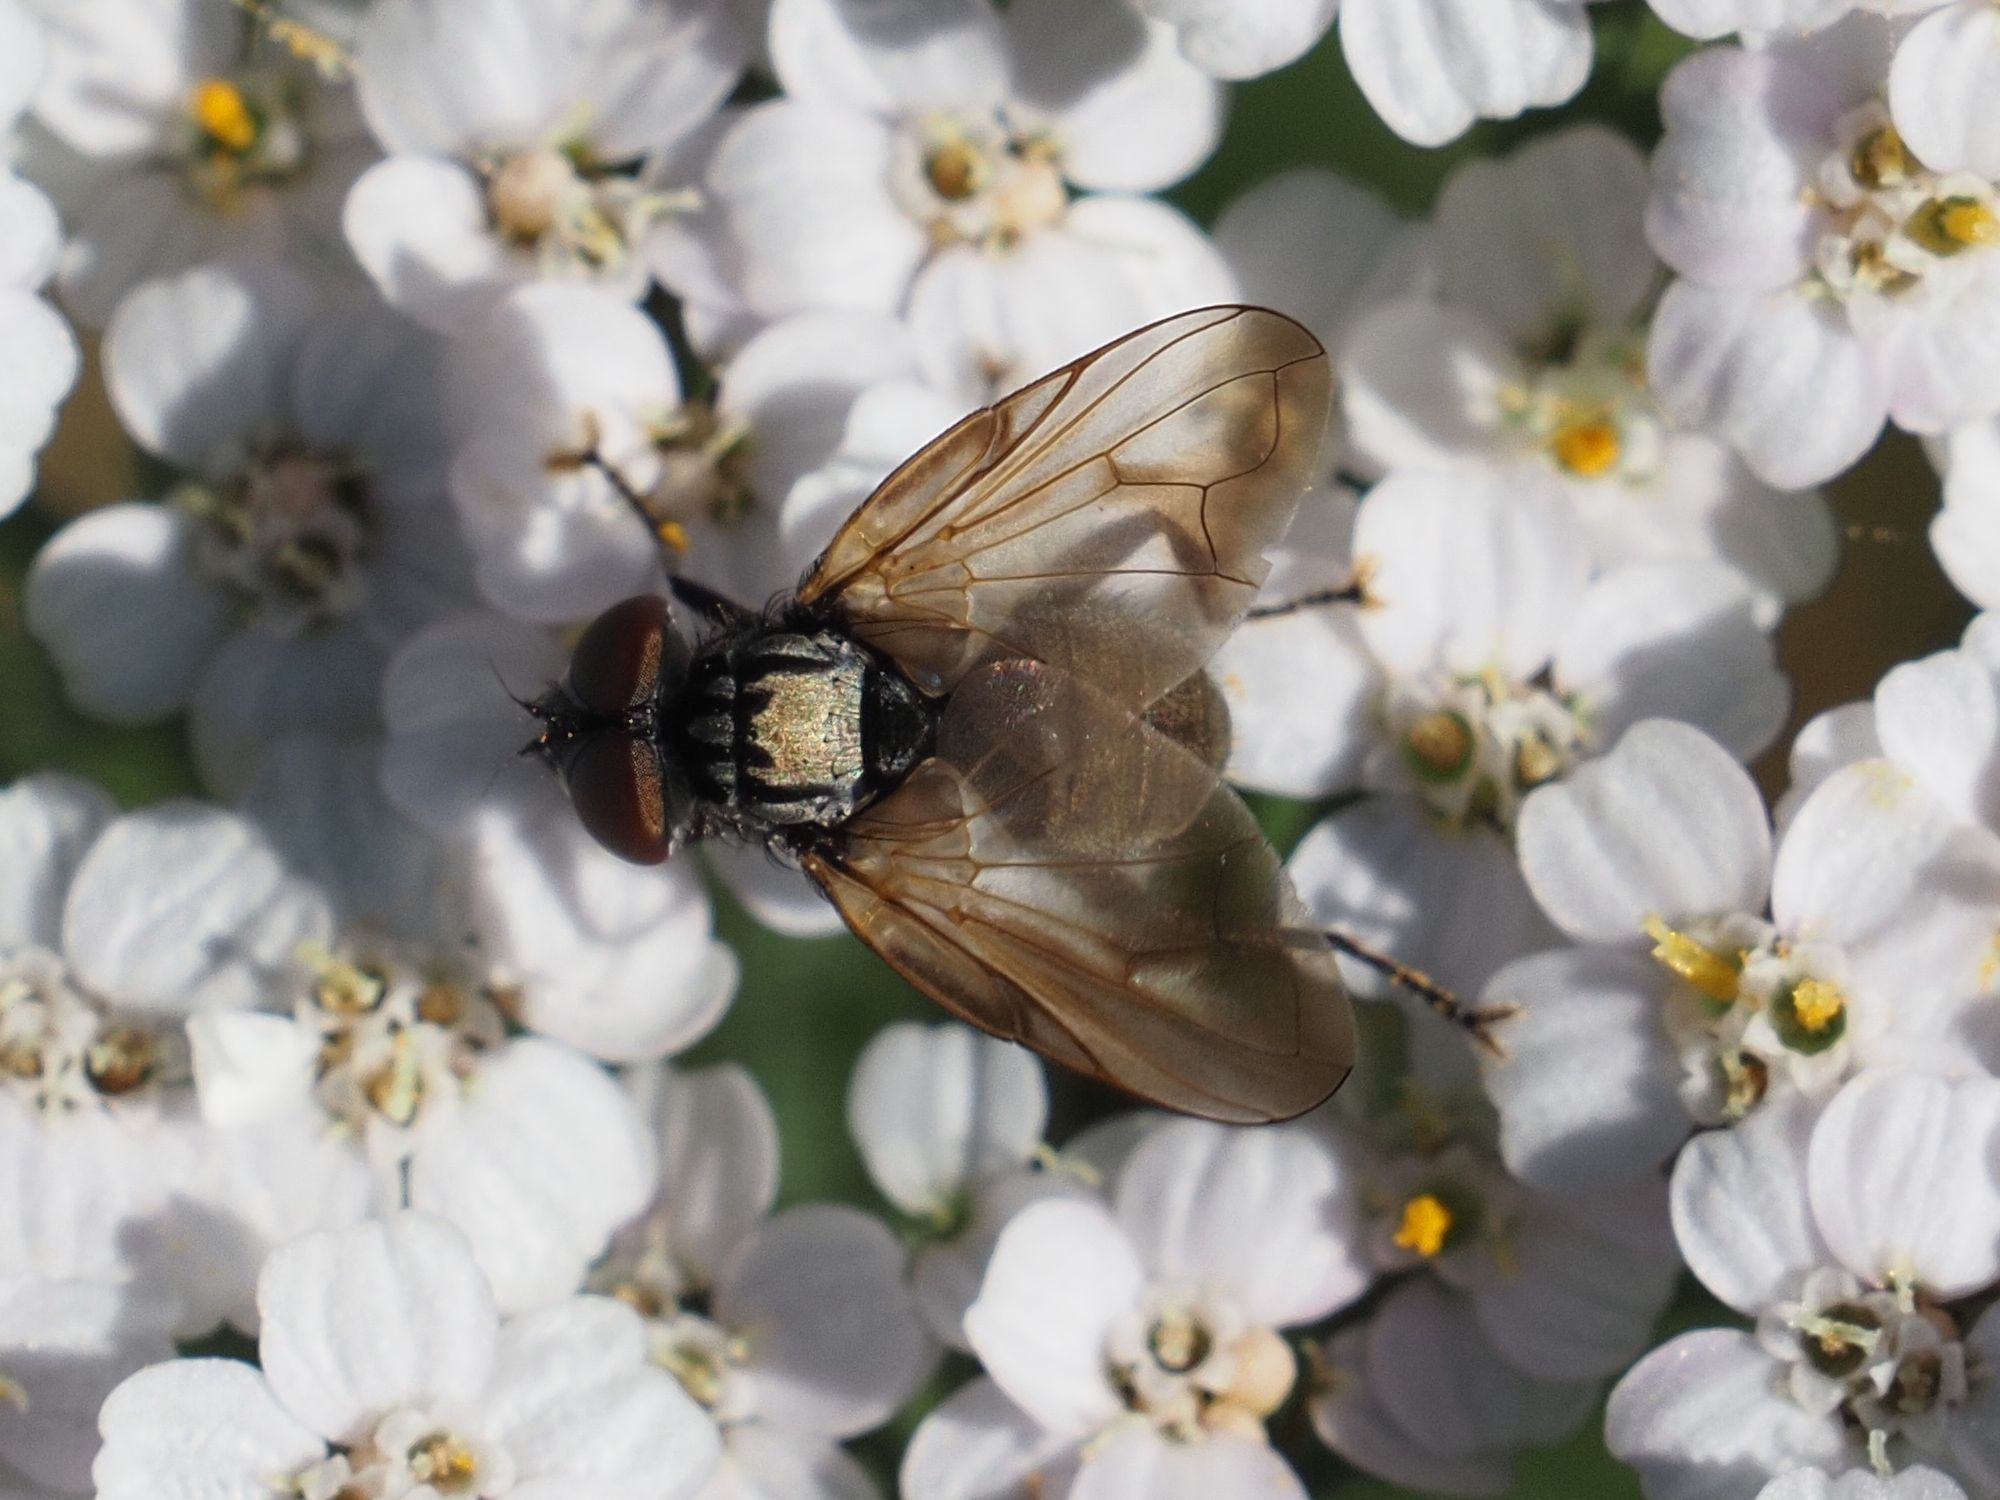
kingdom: Animalia
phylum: Arthropoda
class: Insecta
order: Diptera
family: Tachinidae
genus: Phasia
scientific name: Phasia obesa
